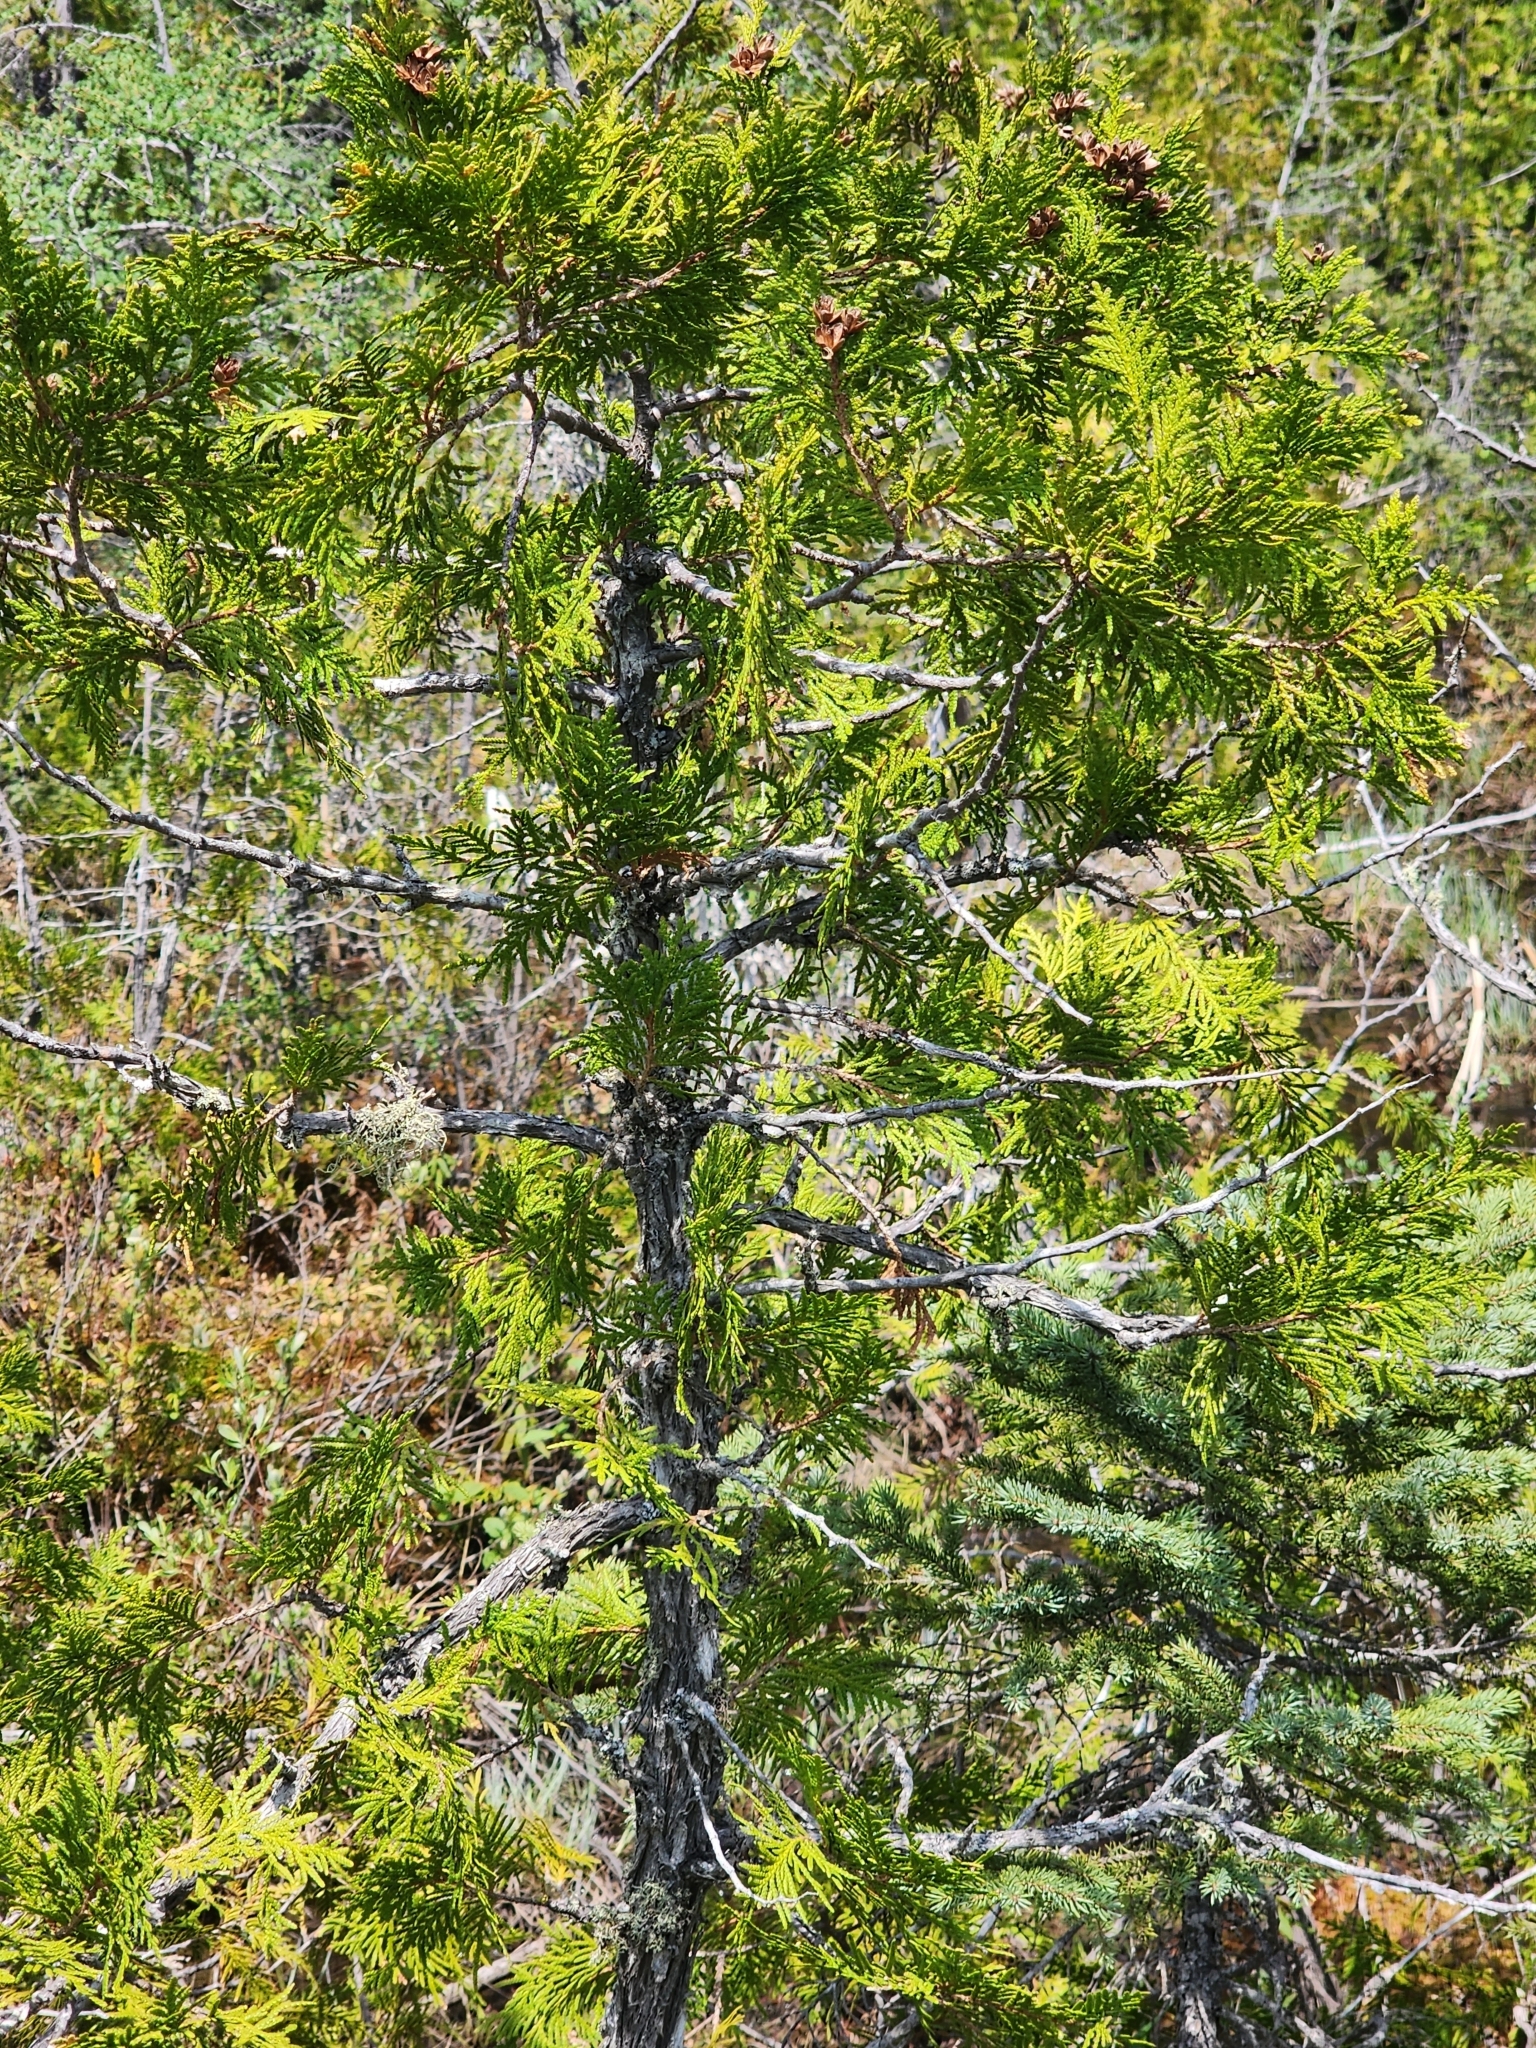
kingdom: Plantae
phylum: Tracheophyta
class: Pinopsida
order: Pinales
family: Cupressaceae
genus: Thuja
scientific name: Thuja occidentalis
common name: Northern white-cedar
